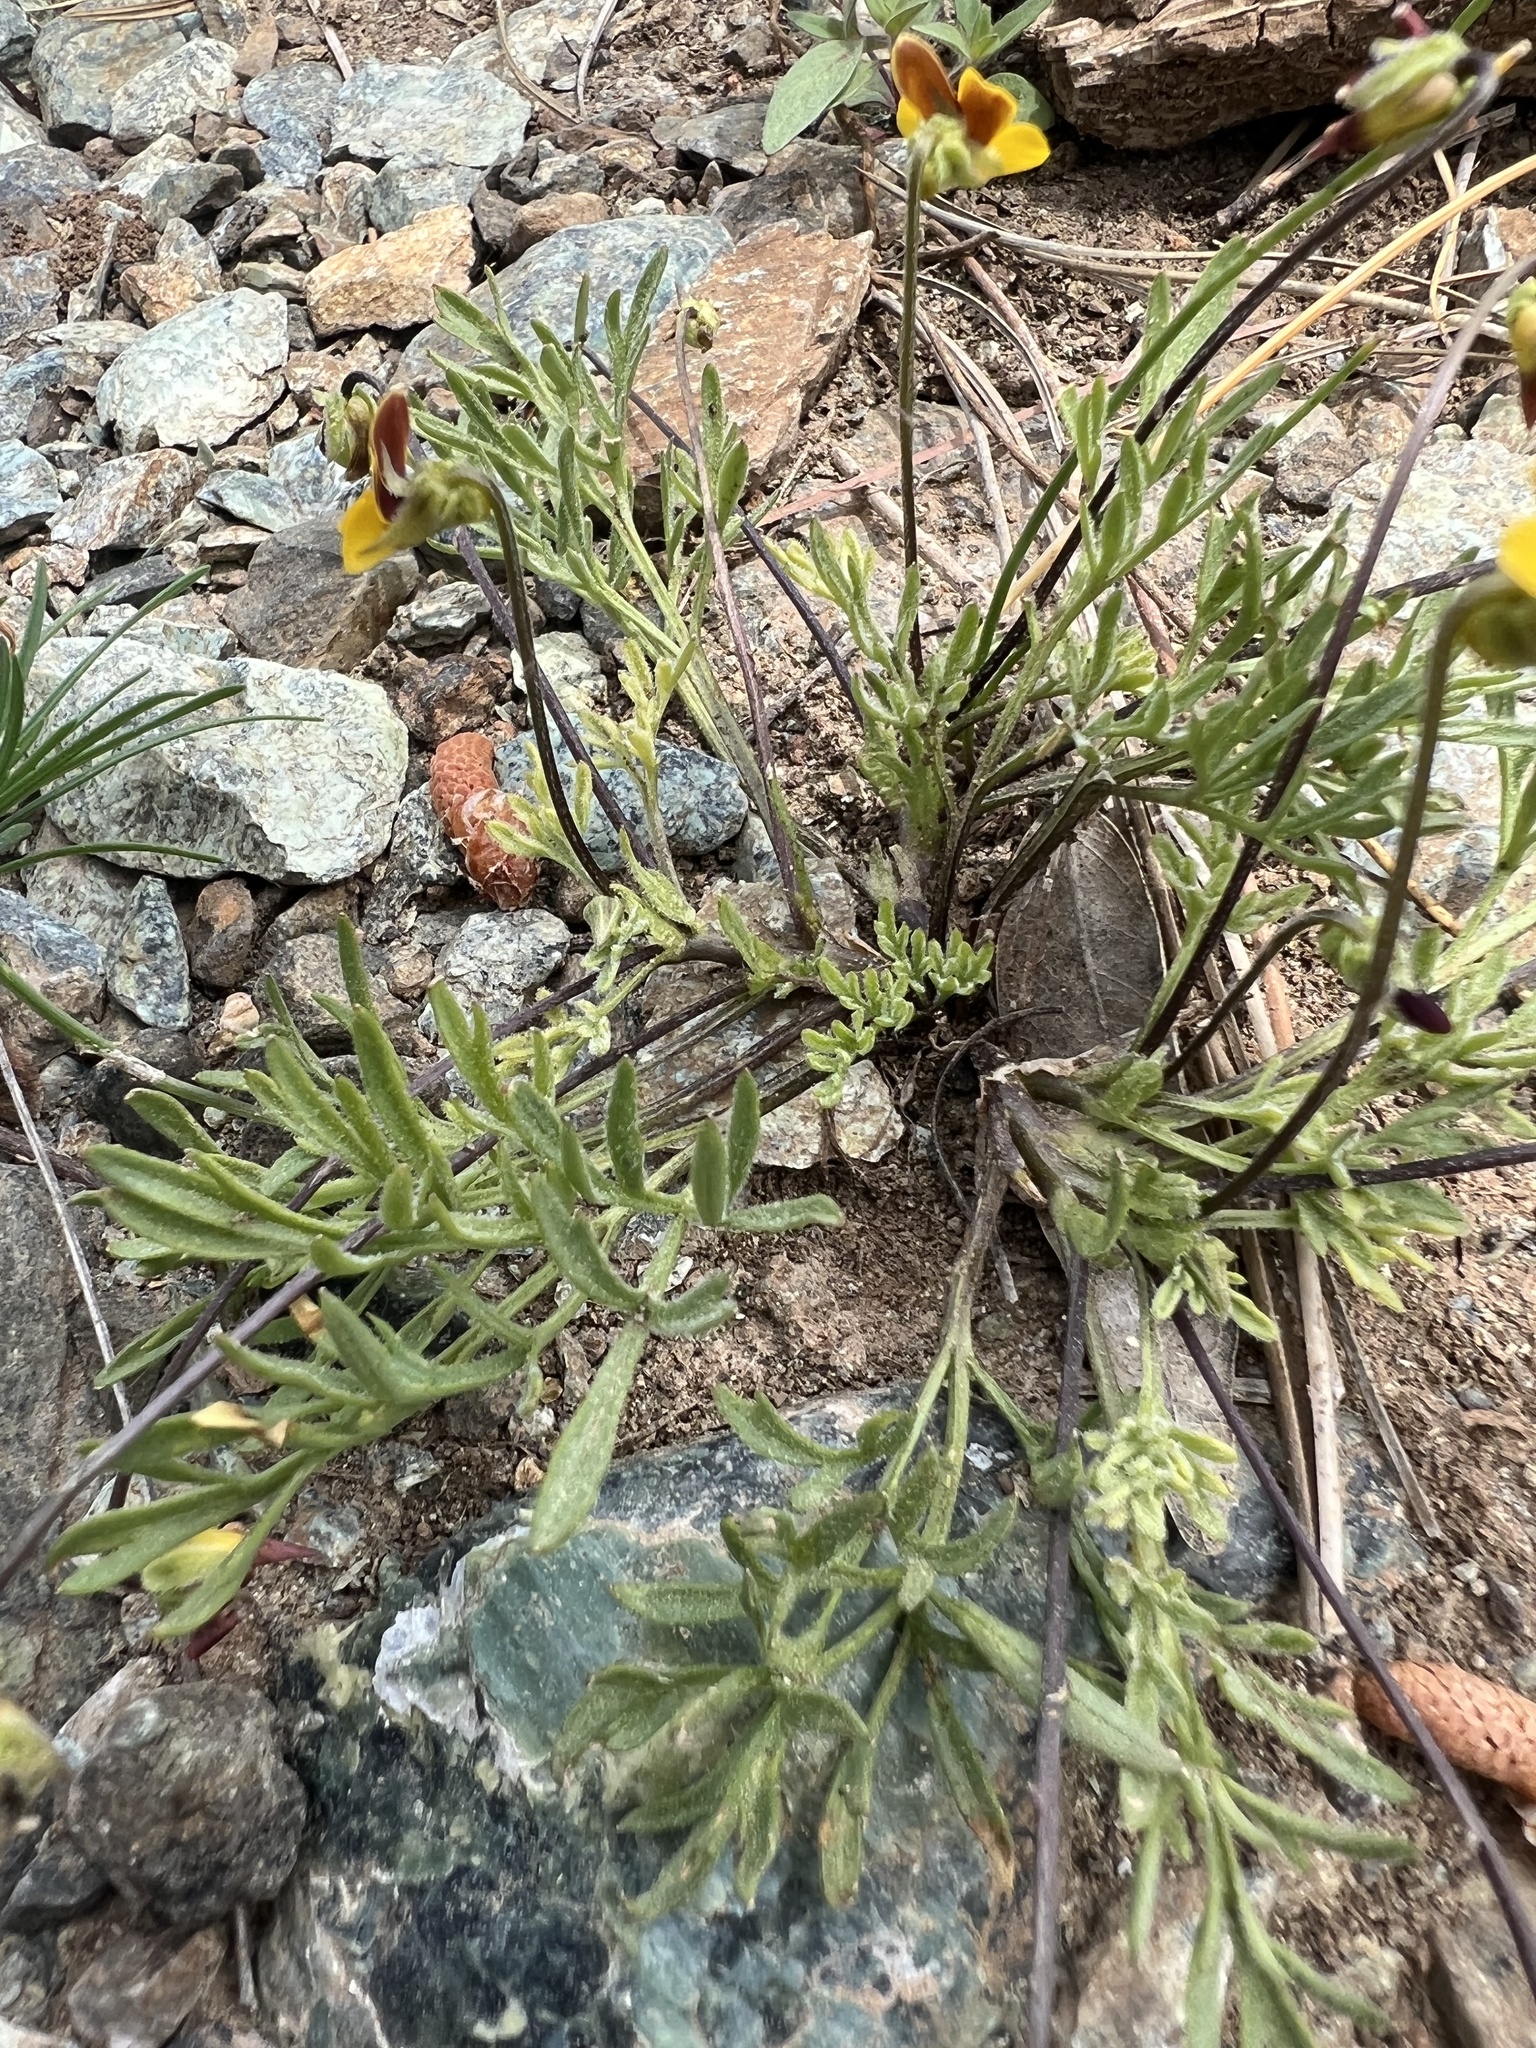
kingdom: Plantae
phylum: Tracheophyta
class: Magnoliopsida
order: Malpighiales
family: Violaceae
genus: Viola
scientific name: Viola douglasii
